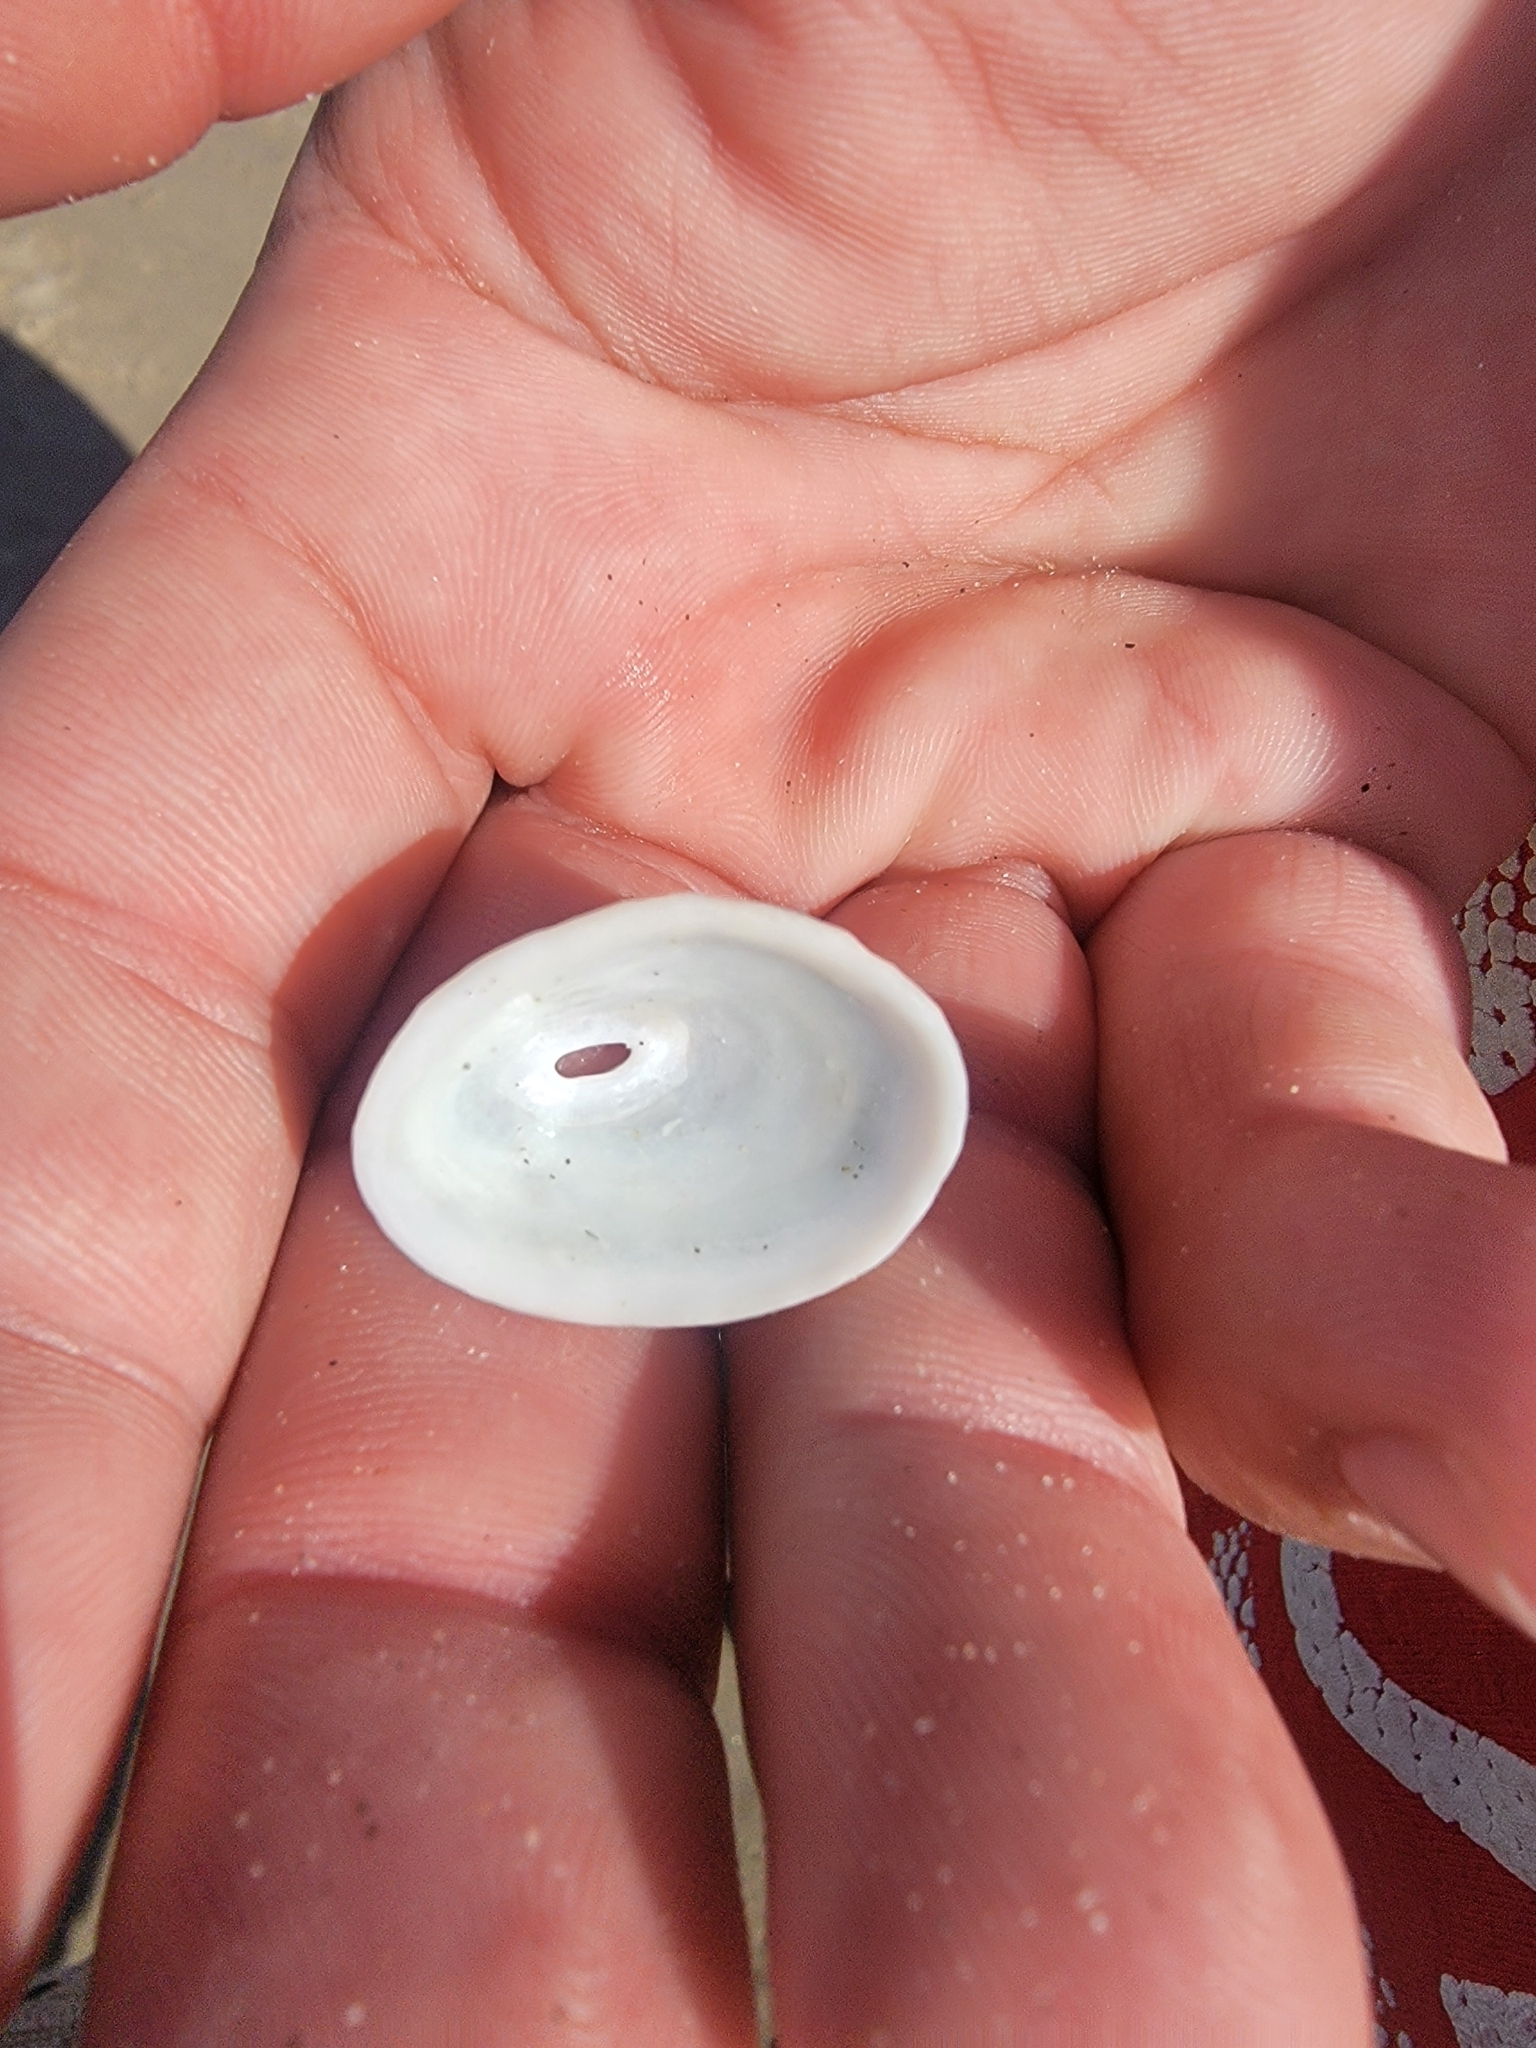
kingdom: Animalia
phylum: Mollusca
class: Gastropoda
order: Lepetellida
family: Fissurellidae
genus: Fissurella
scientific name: Fissurella volcano
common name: Volcano keyhole limpet
